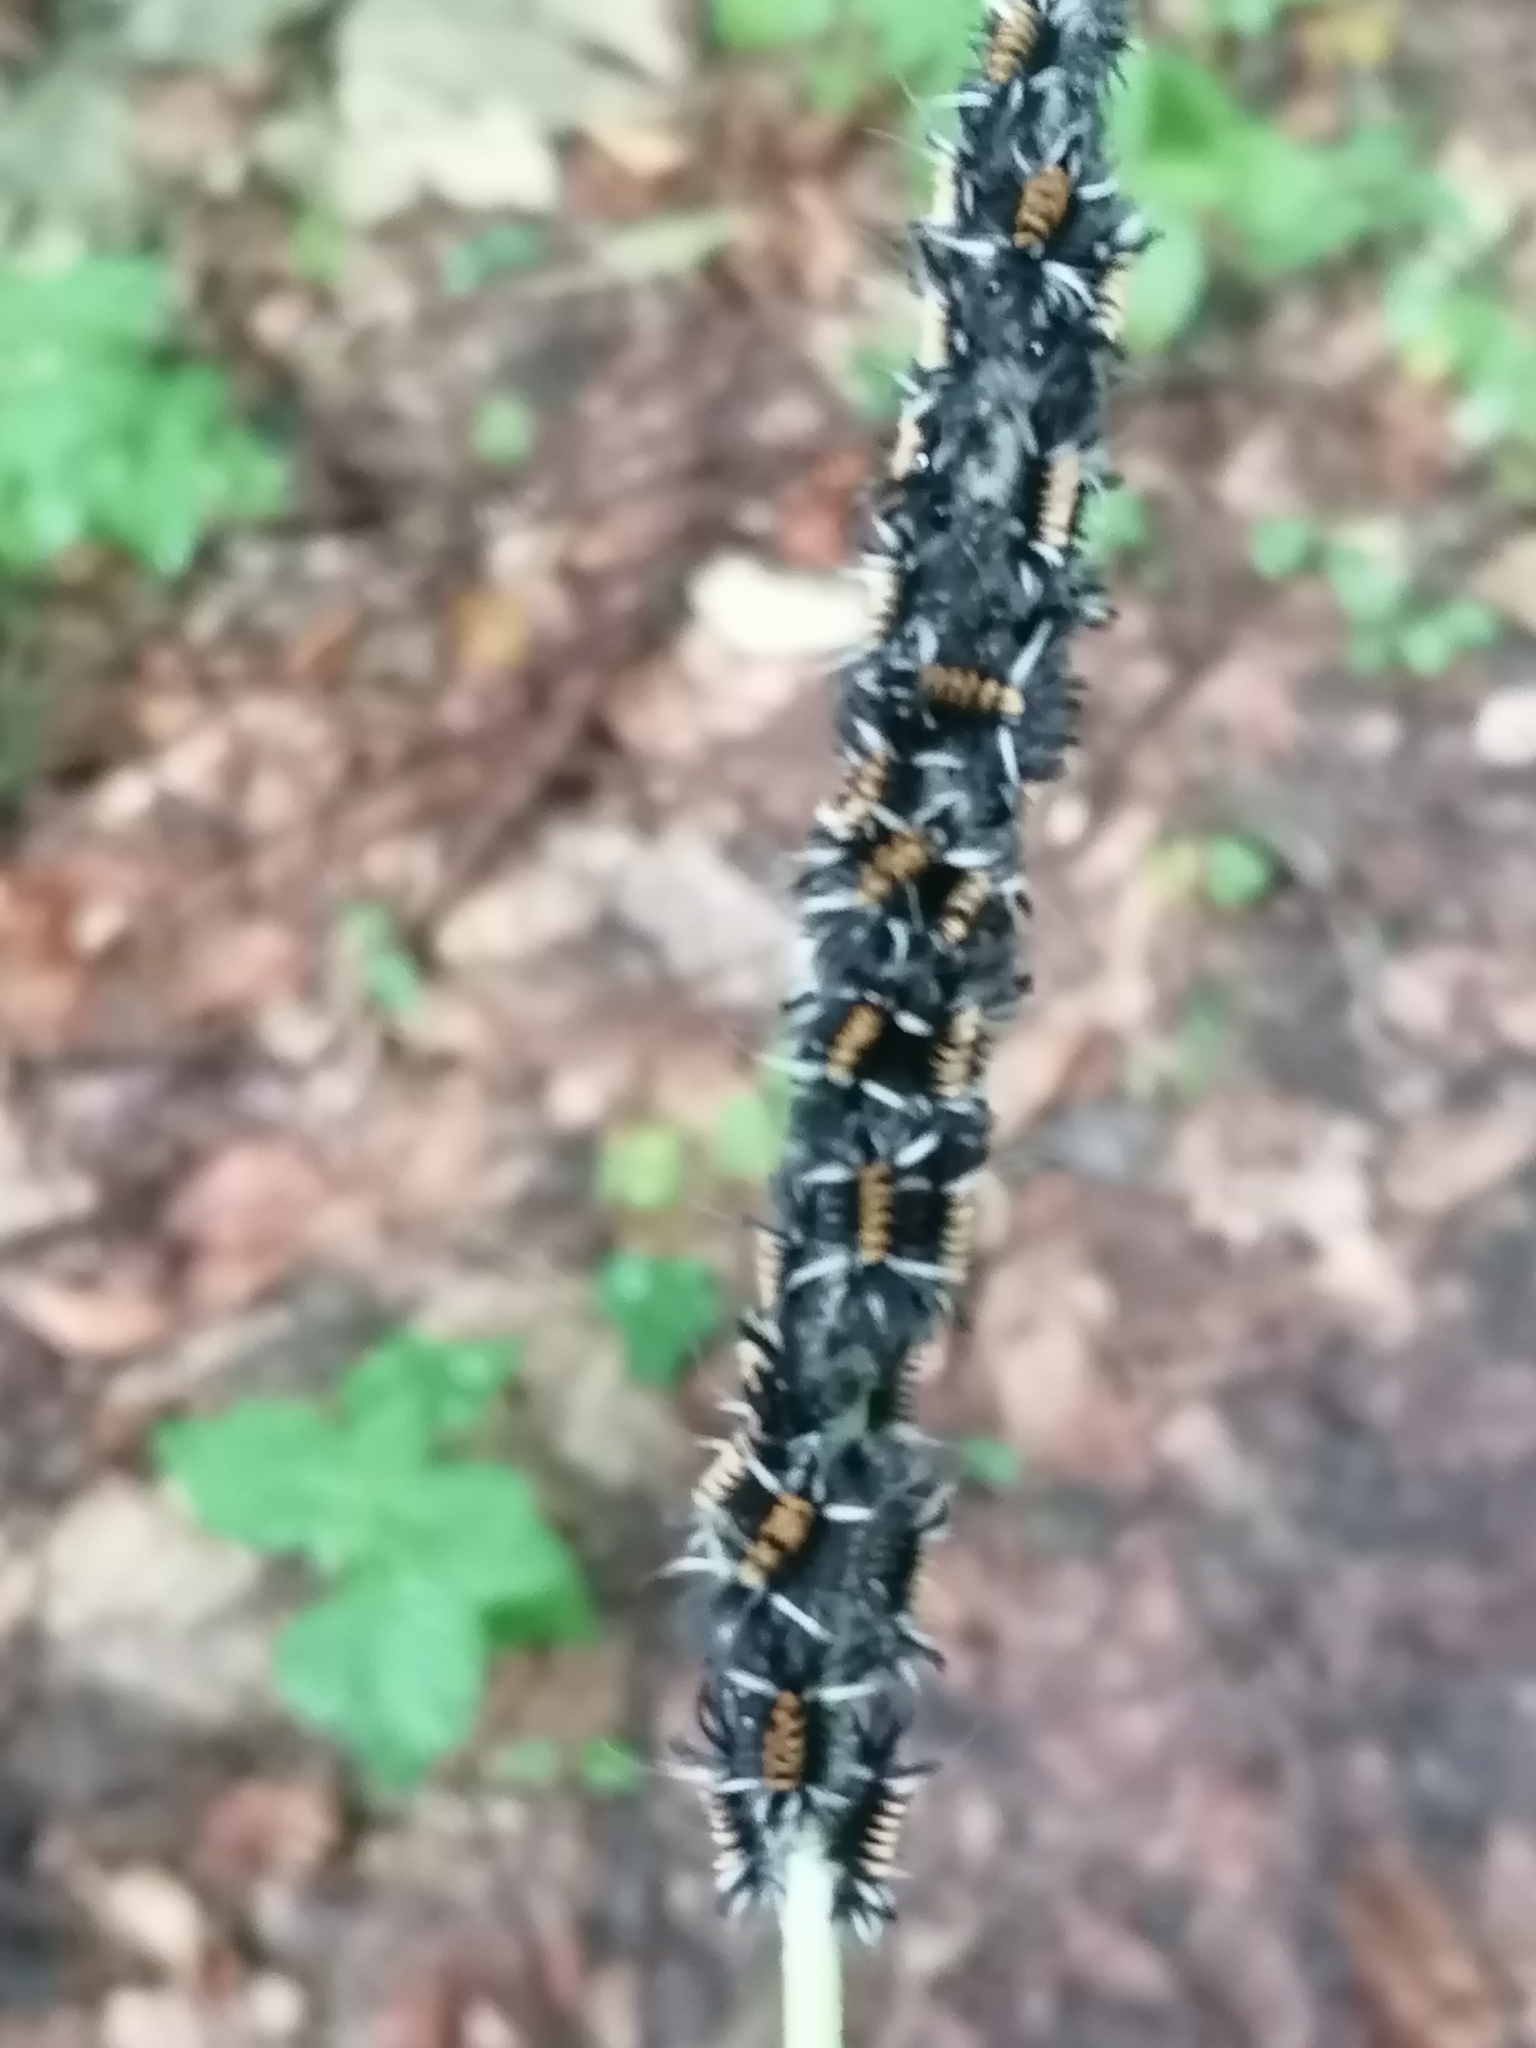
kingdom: Animalia
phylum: Arthropoda
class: Insecta
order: Lepidoptera
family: Erebidae
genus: Euchaetes
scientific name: Euchaetes egle
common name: Milkweed tussock moth
